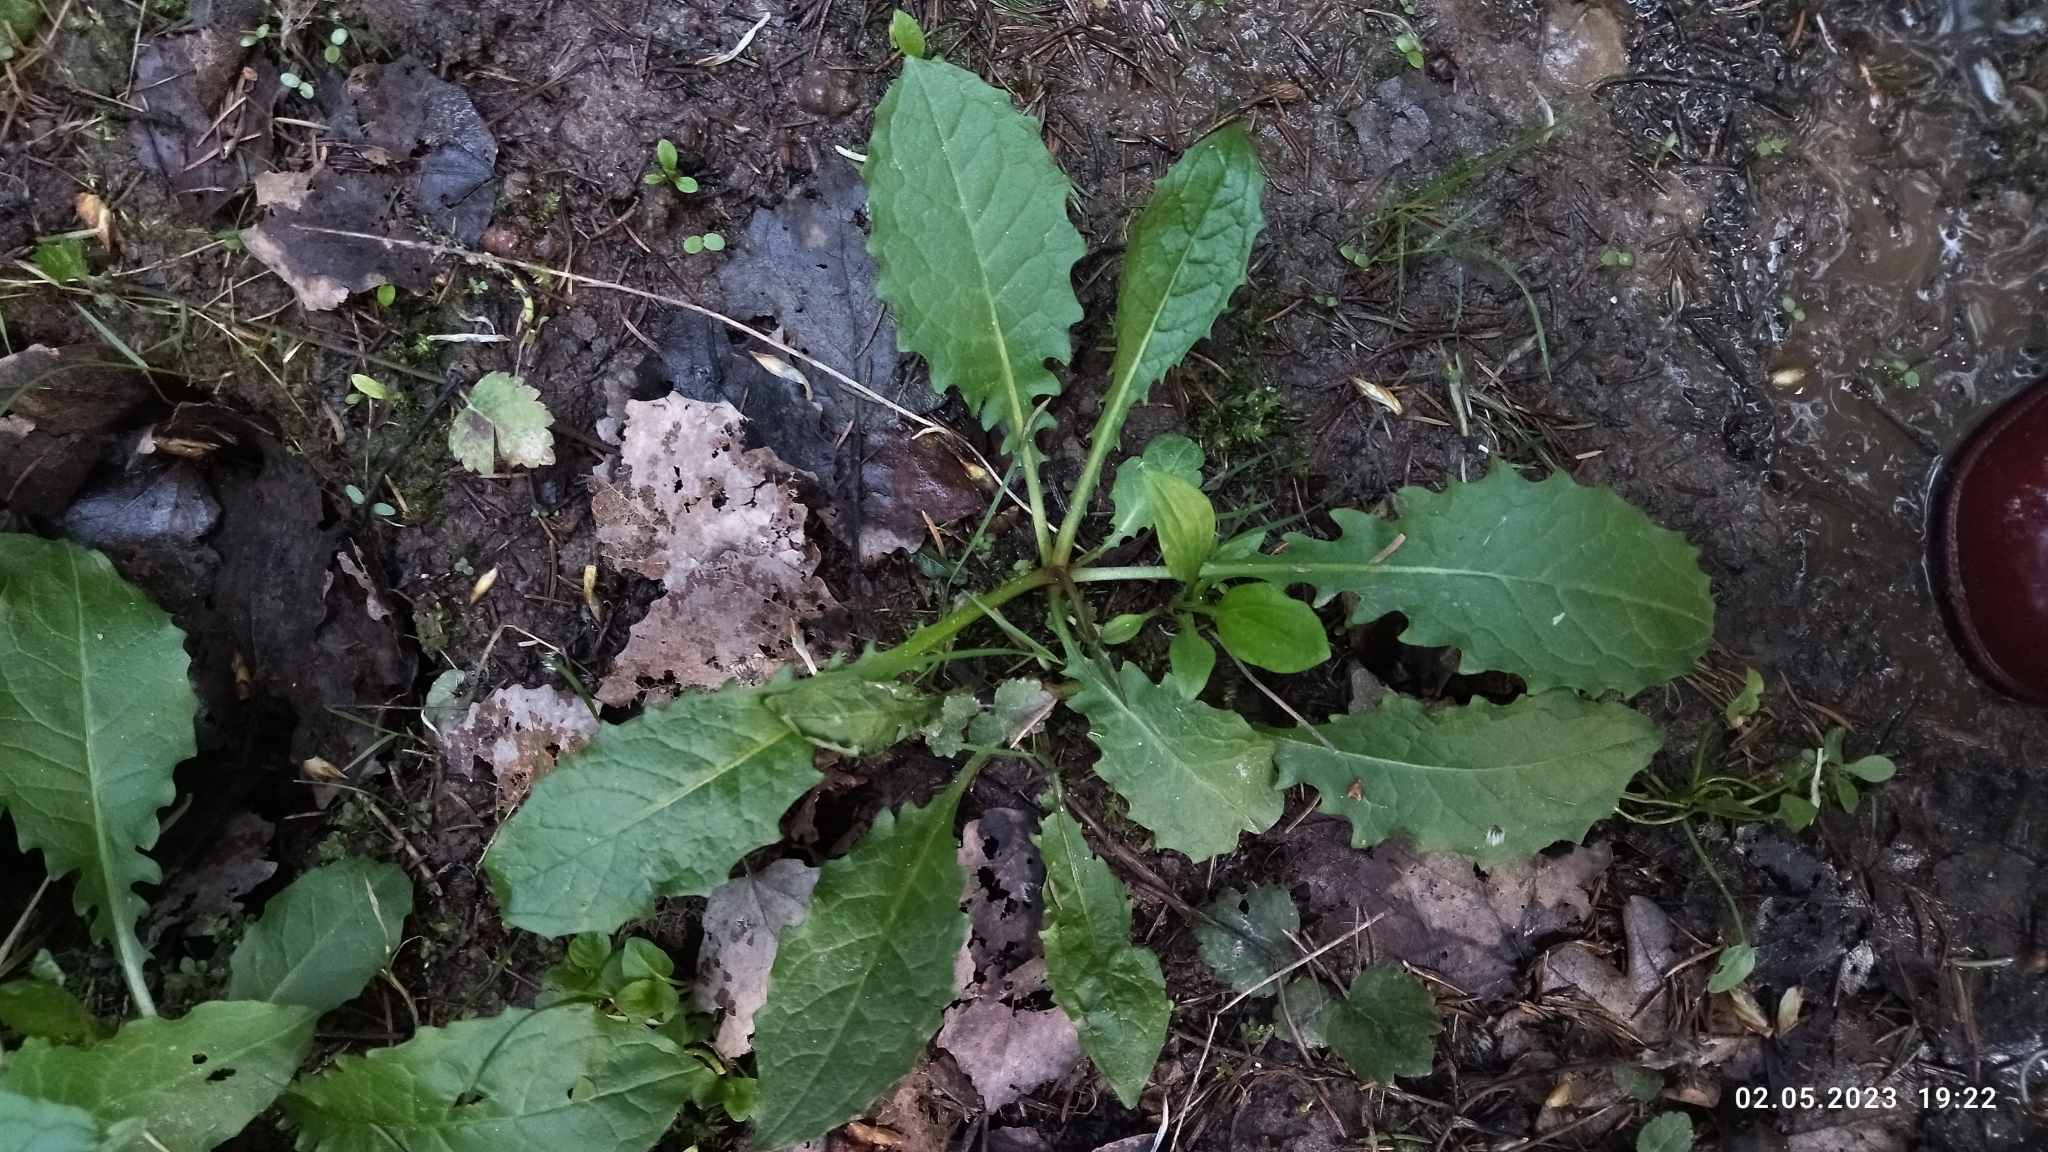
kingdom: Plantae
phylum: Tracheophyta
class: Magnoliopsida
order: Asterales
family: Asteraceae
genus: Crepis
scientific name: Crepis paludosa
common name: Marsh hawk's-beard
